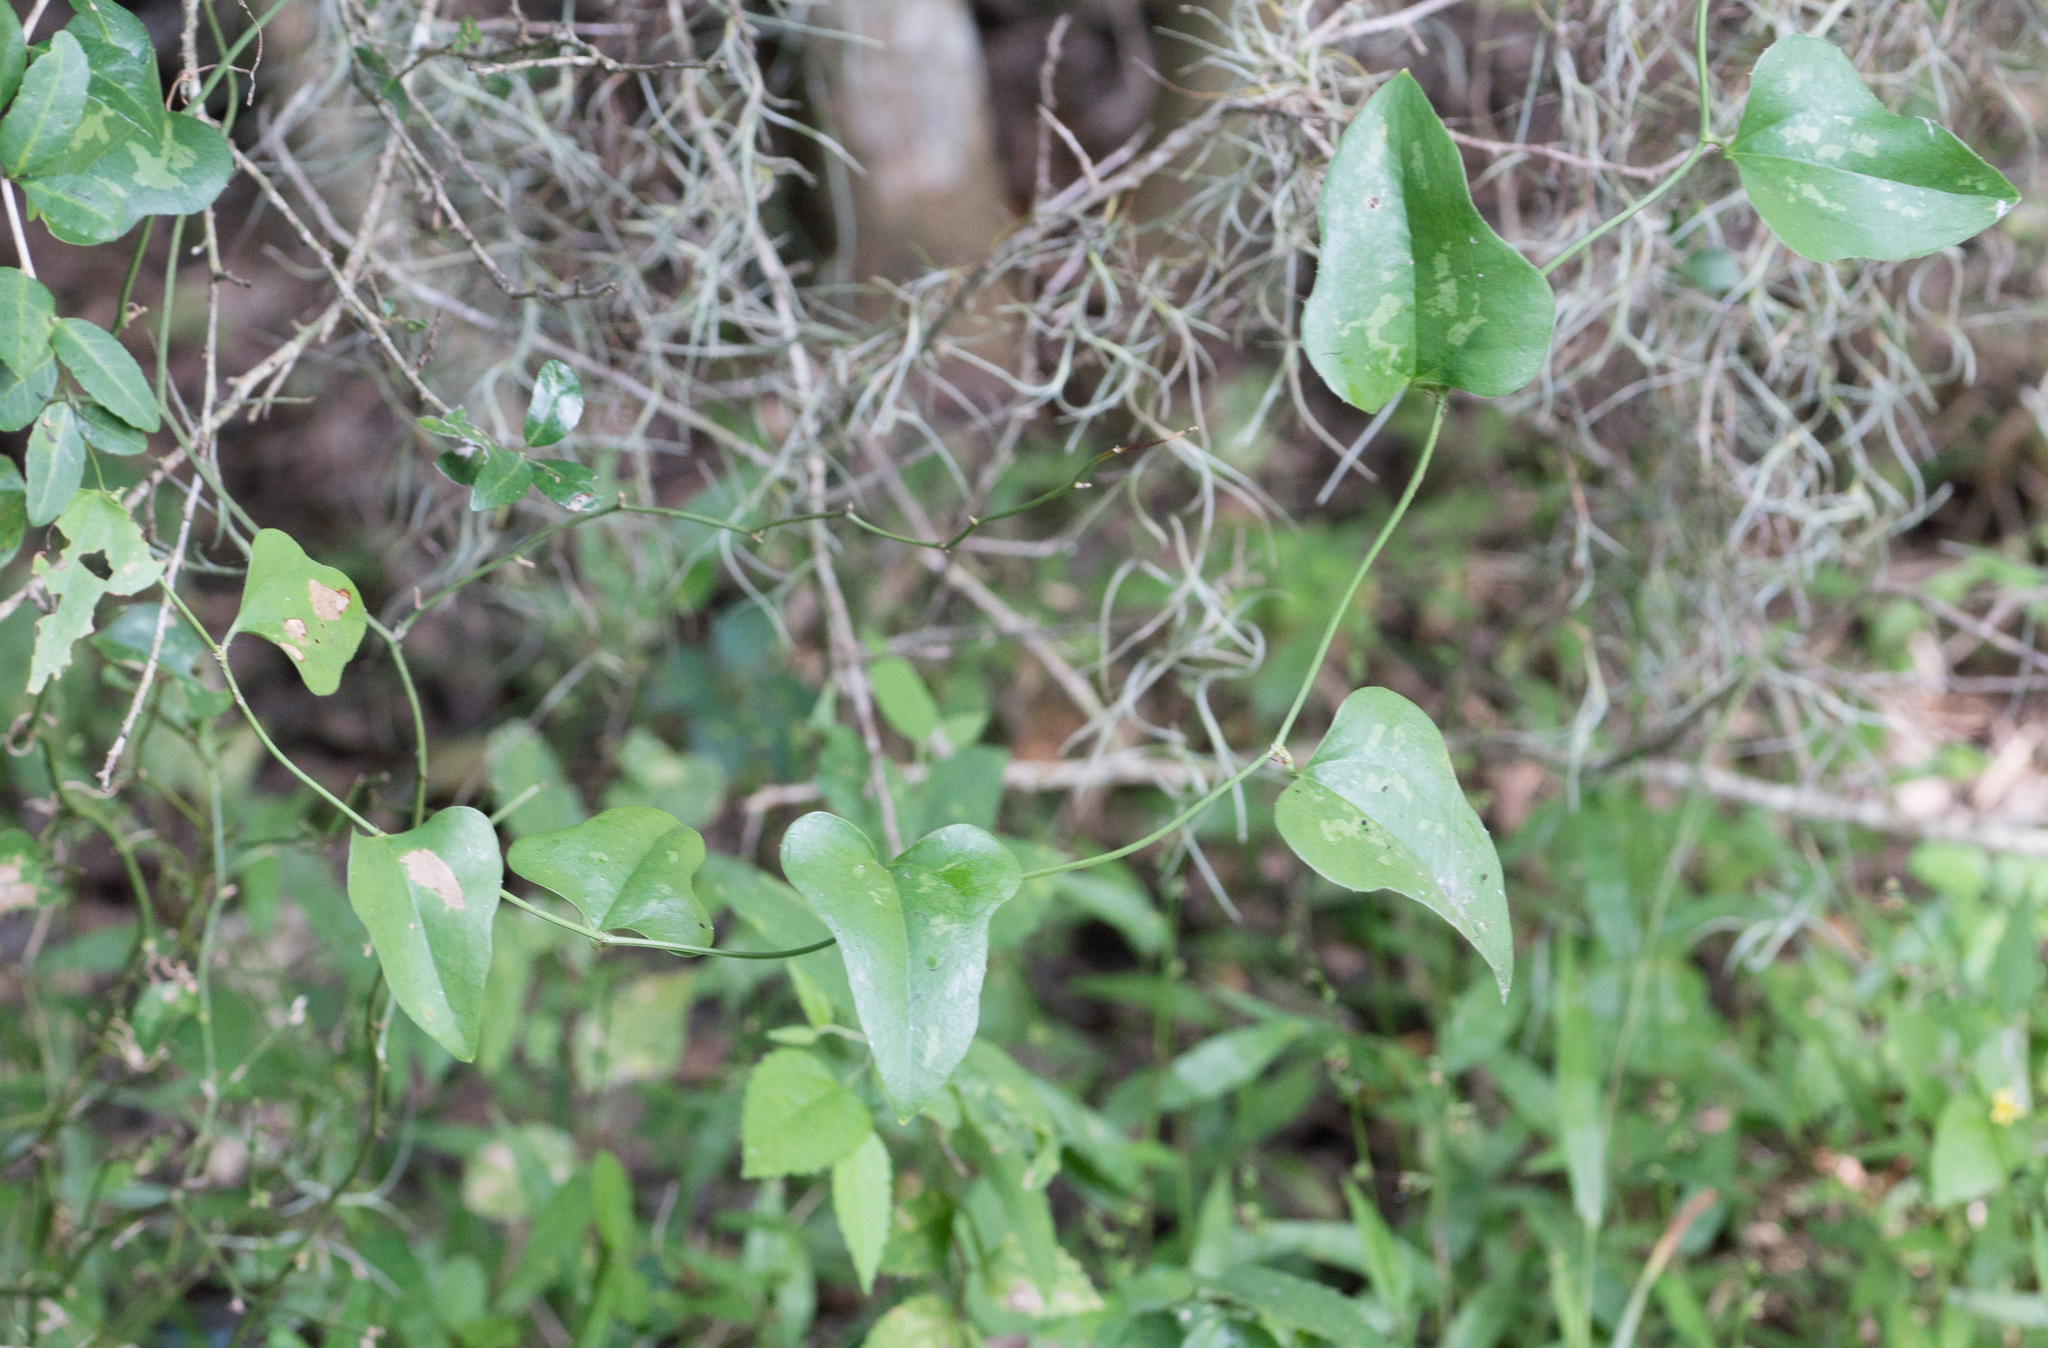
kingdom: Plantae
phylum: Tracheophyta
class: Liliopsida
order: Liliales
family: Smilacaceae
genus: Smilax
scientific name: Smilax bona-nox
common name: Catbrier
